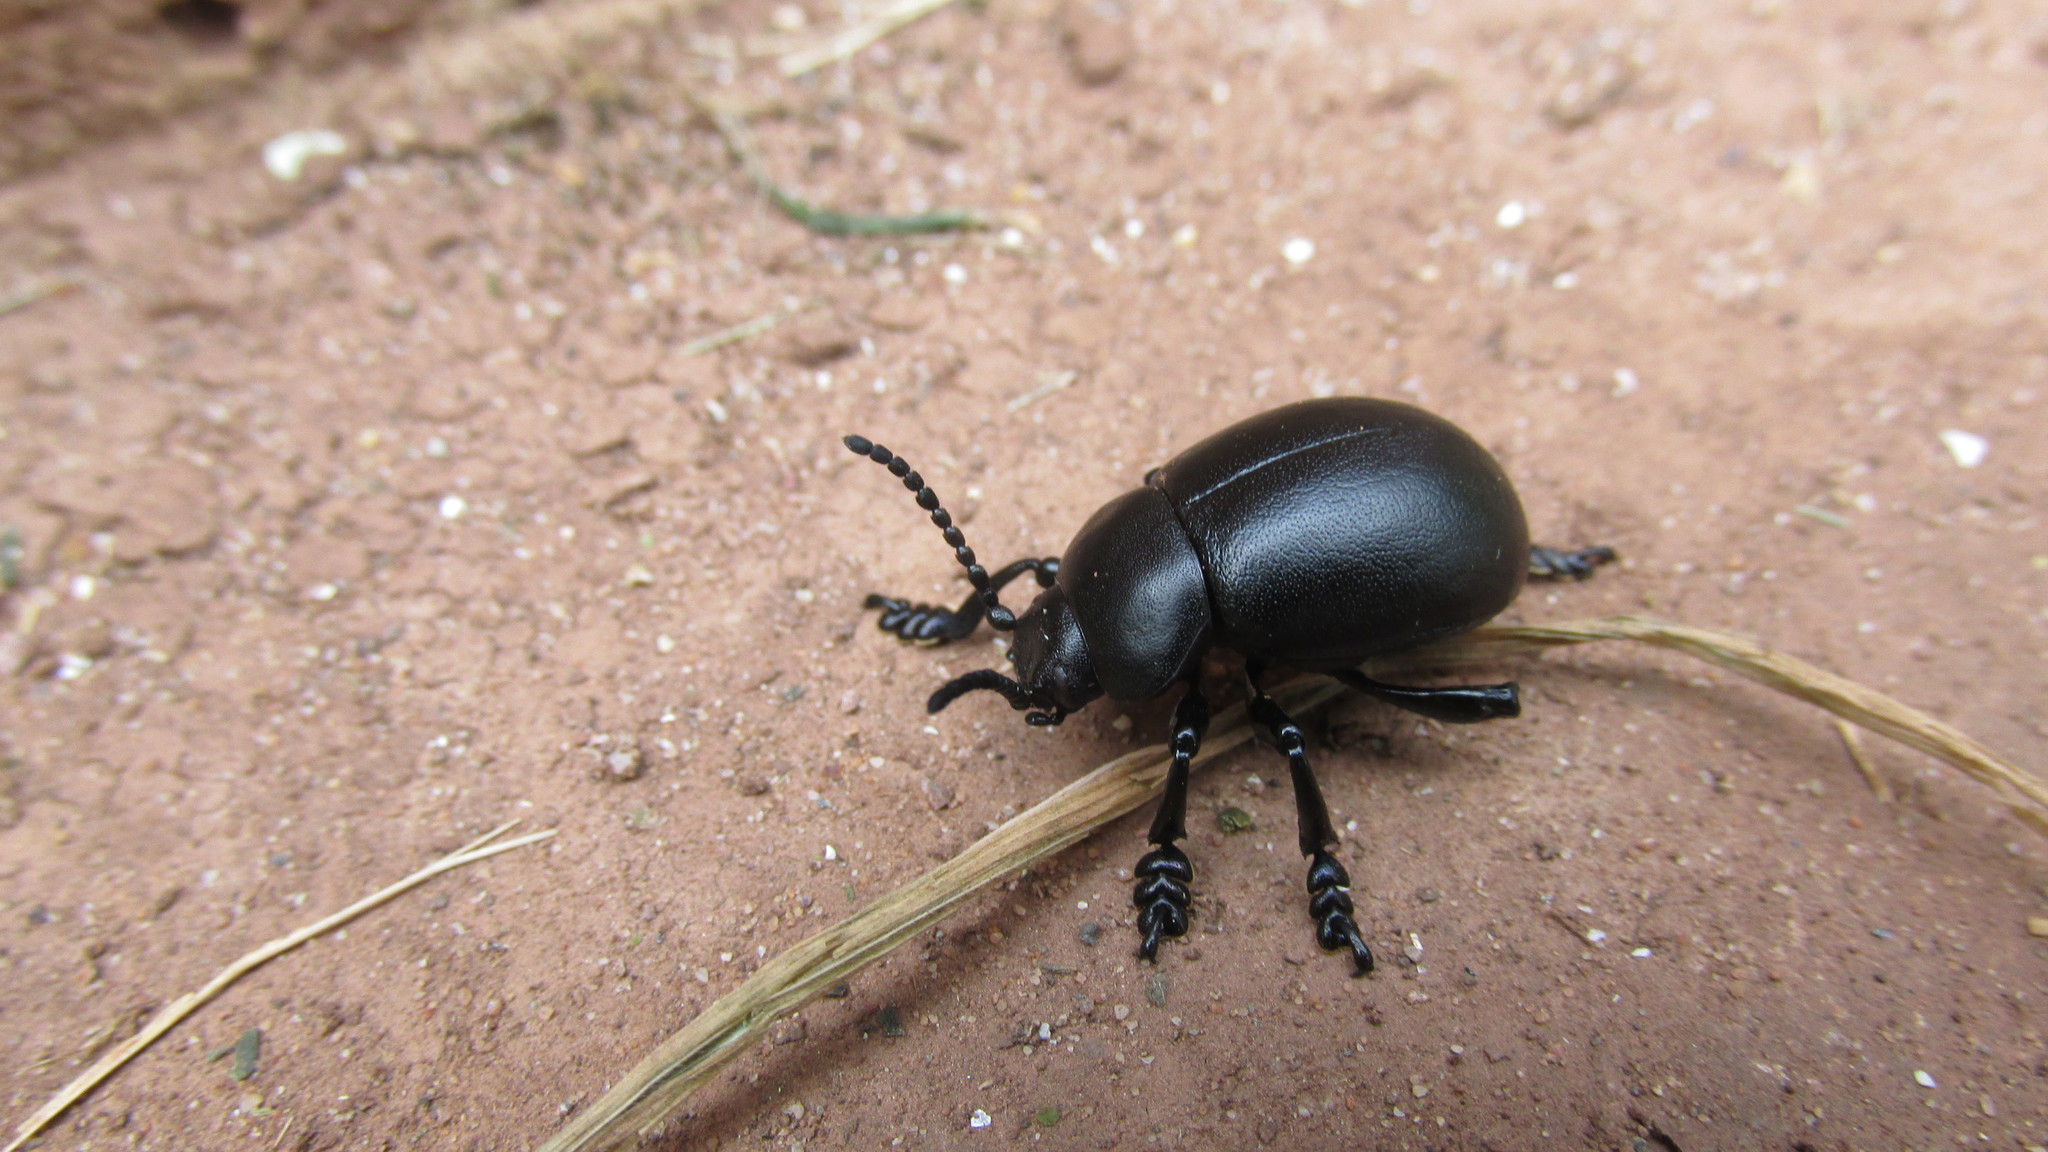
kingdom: Animalia
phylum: Arthropoda
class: Insecta
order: Coleoptera
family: Chrysomelidae
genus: Timarcha
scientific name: Timarcha tenebricosa
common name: Bloody-nosed beetle
